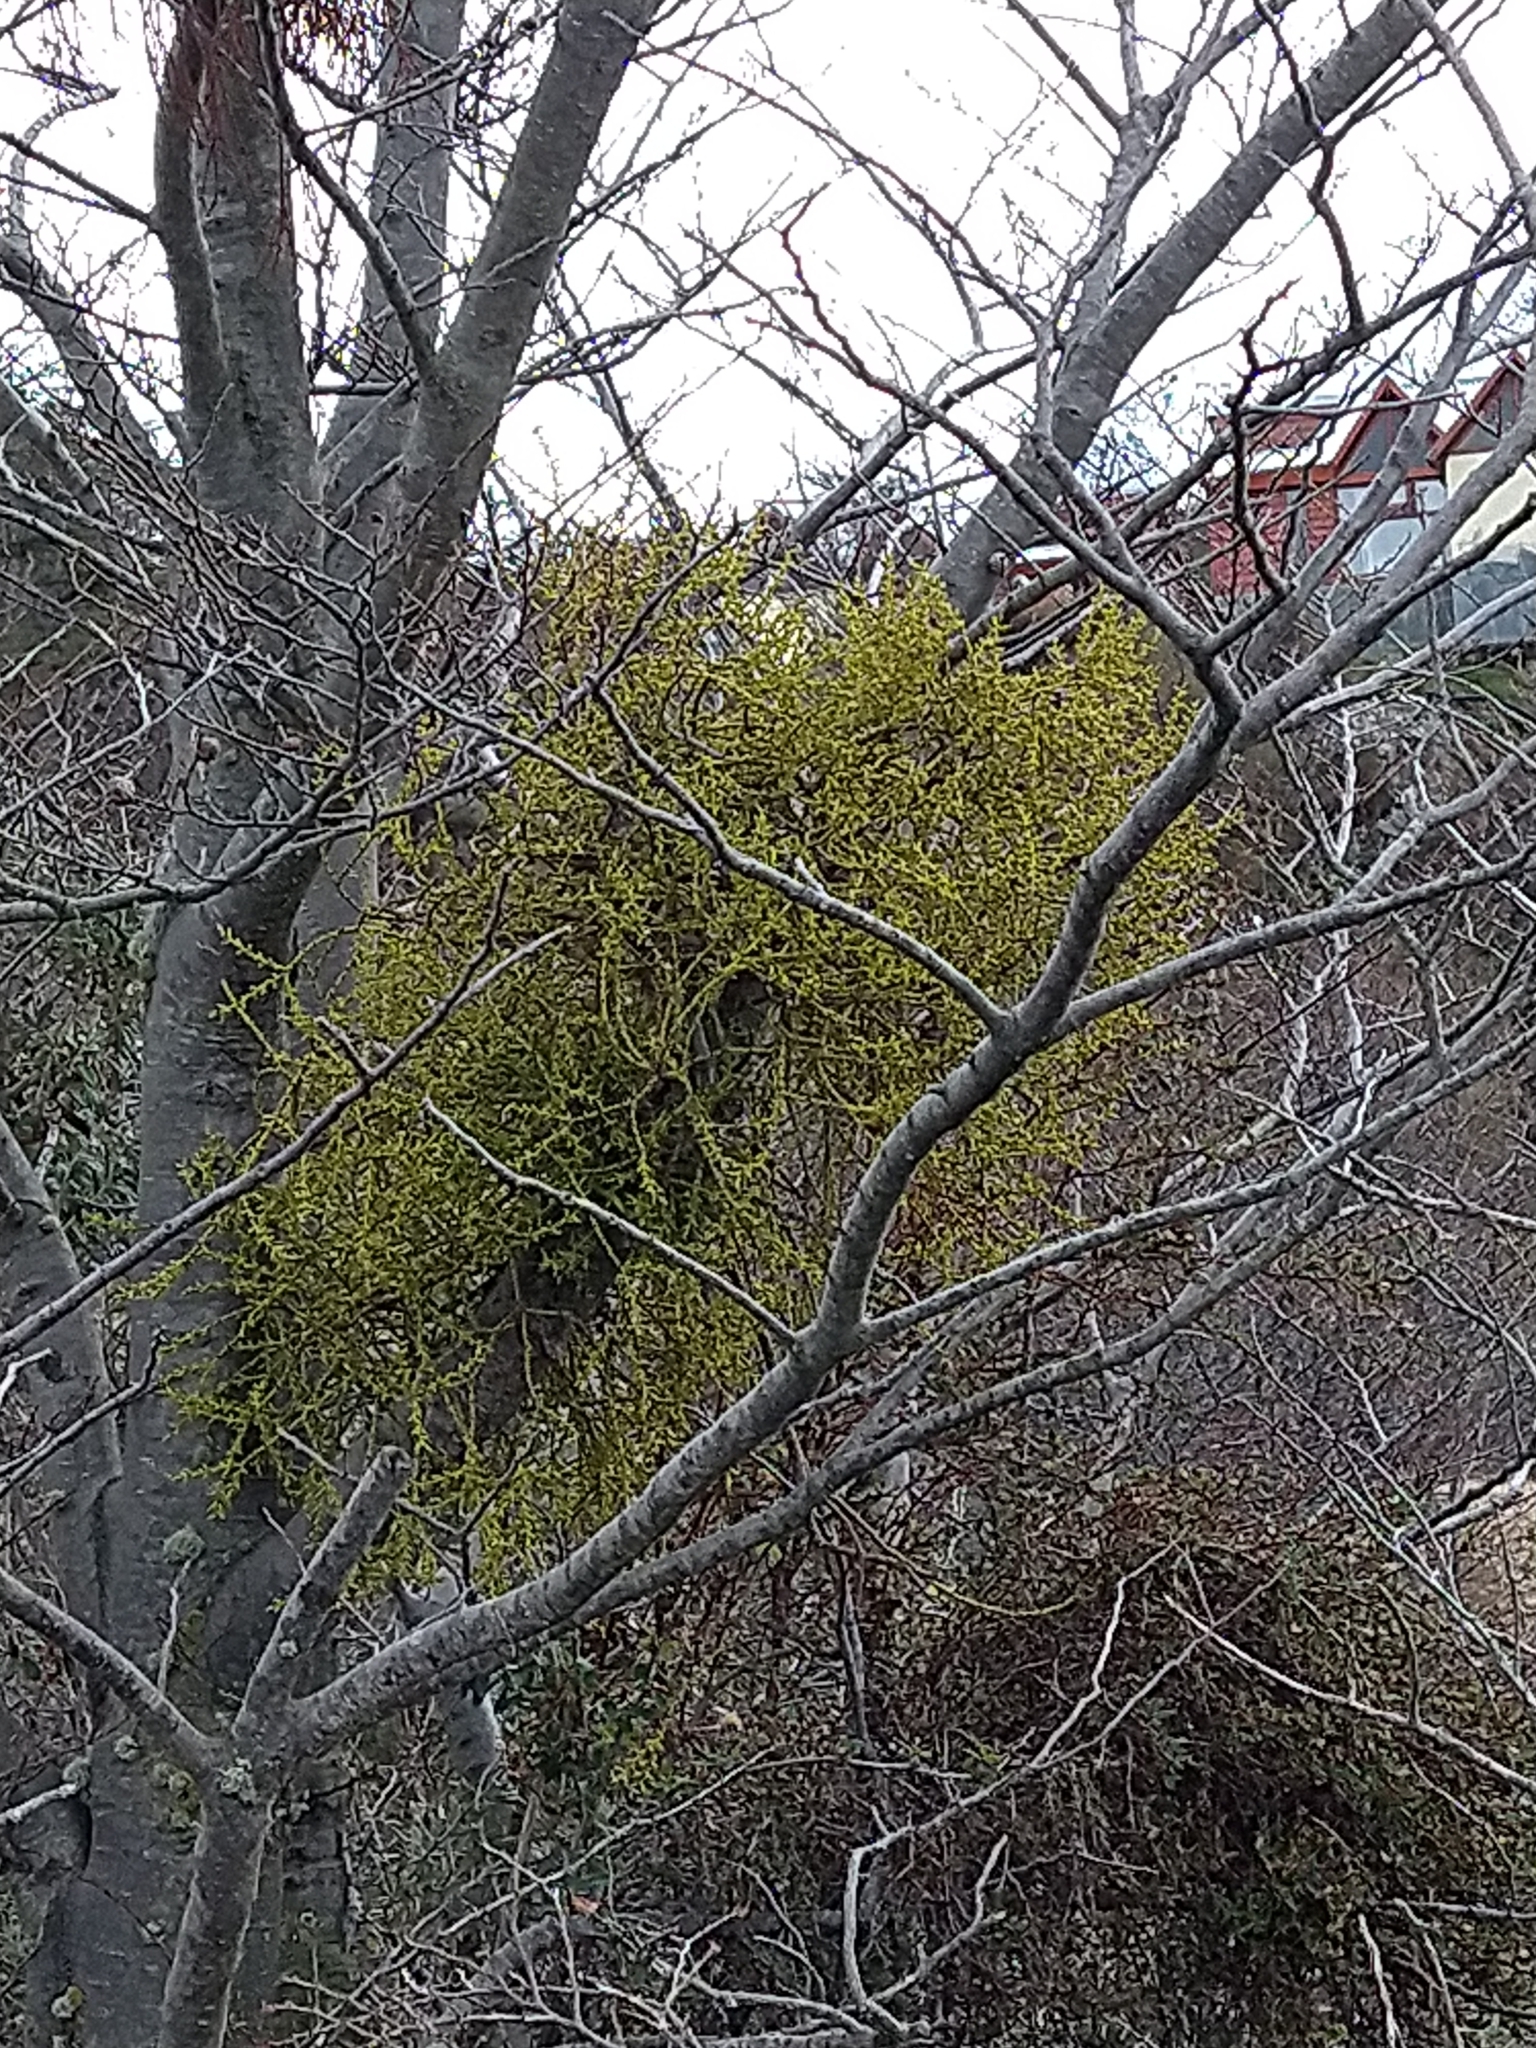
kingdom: Plantae
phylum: Tracheophyta
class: Magnoliopsida
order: Santalales
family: Misodendraceae
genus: Misodendrum
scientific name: Misodendrum punctulatum
